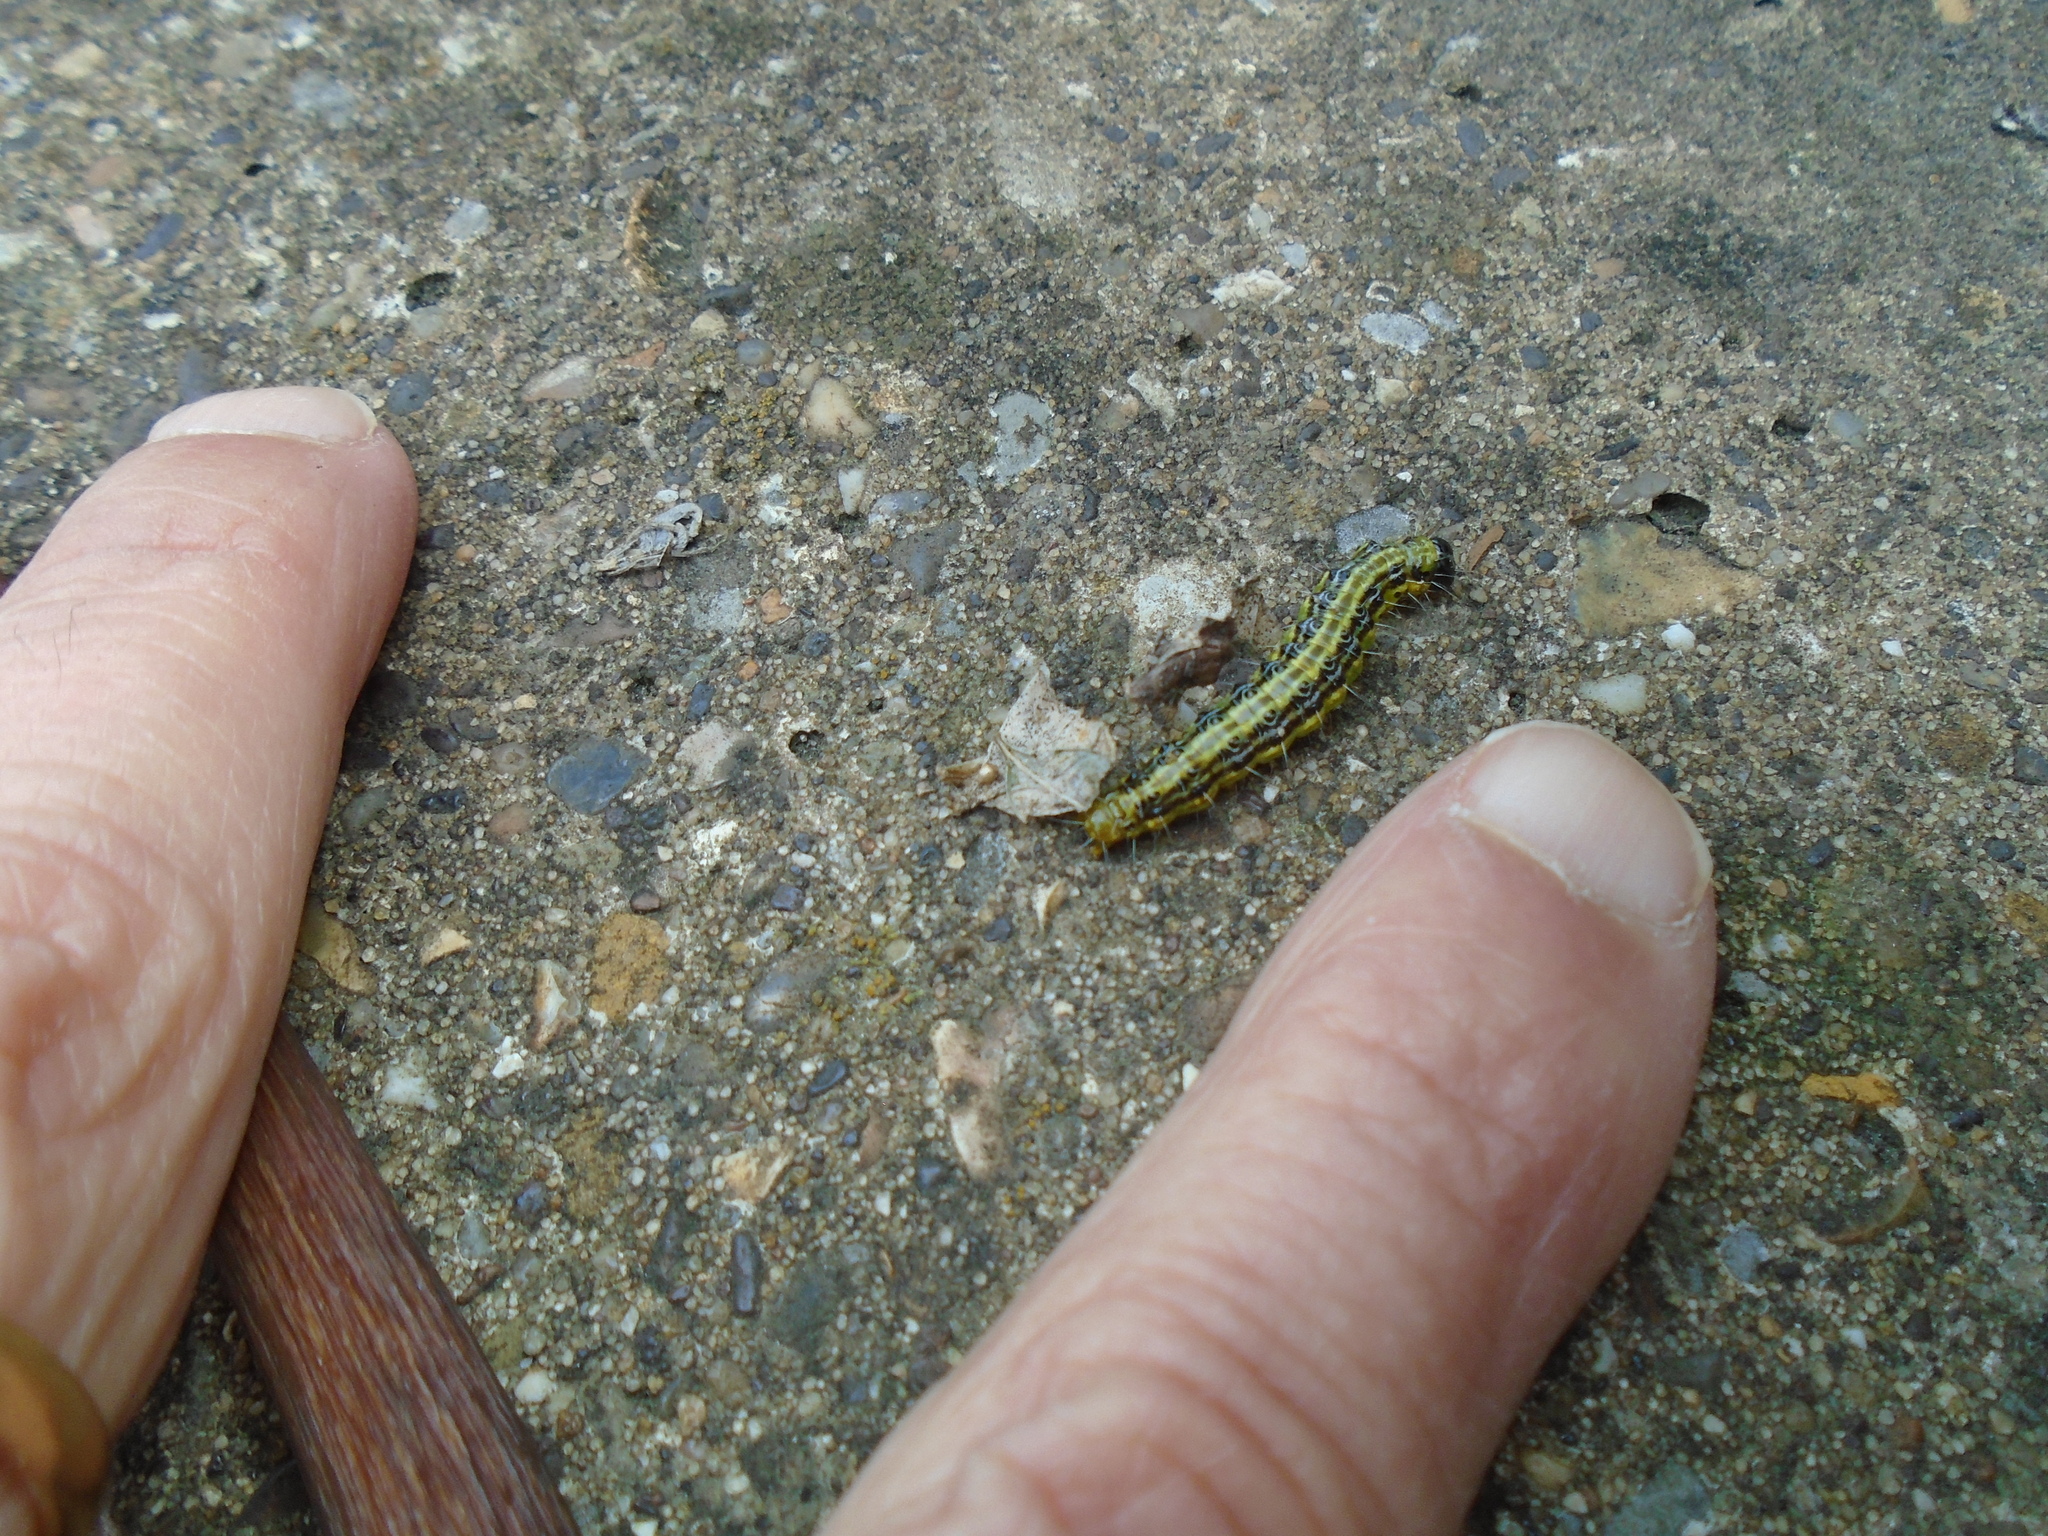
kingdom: Animalia
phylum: Arthropoda
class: Insecta
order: Lepidoptera
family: Crambidae
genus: Cydalima
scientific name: Cydalima perspectalis
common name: Box tree moth
